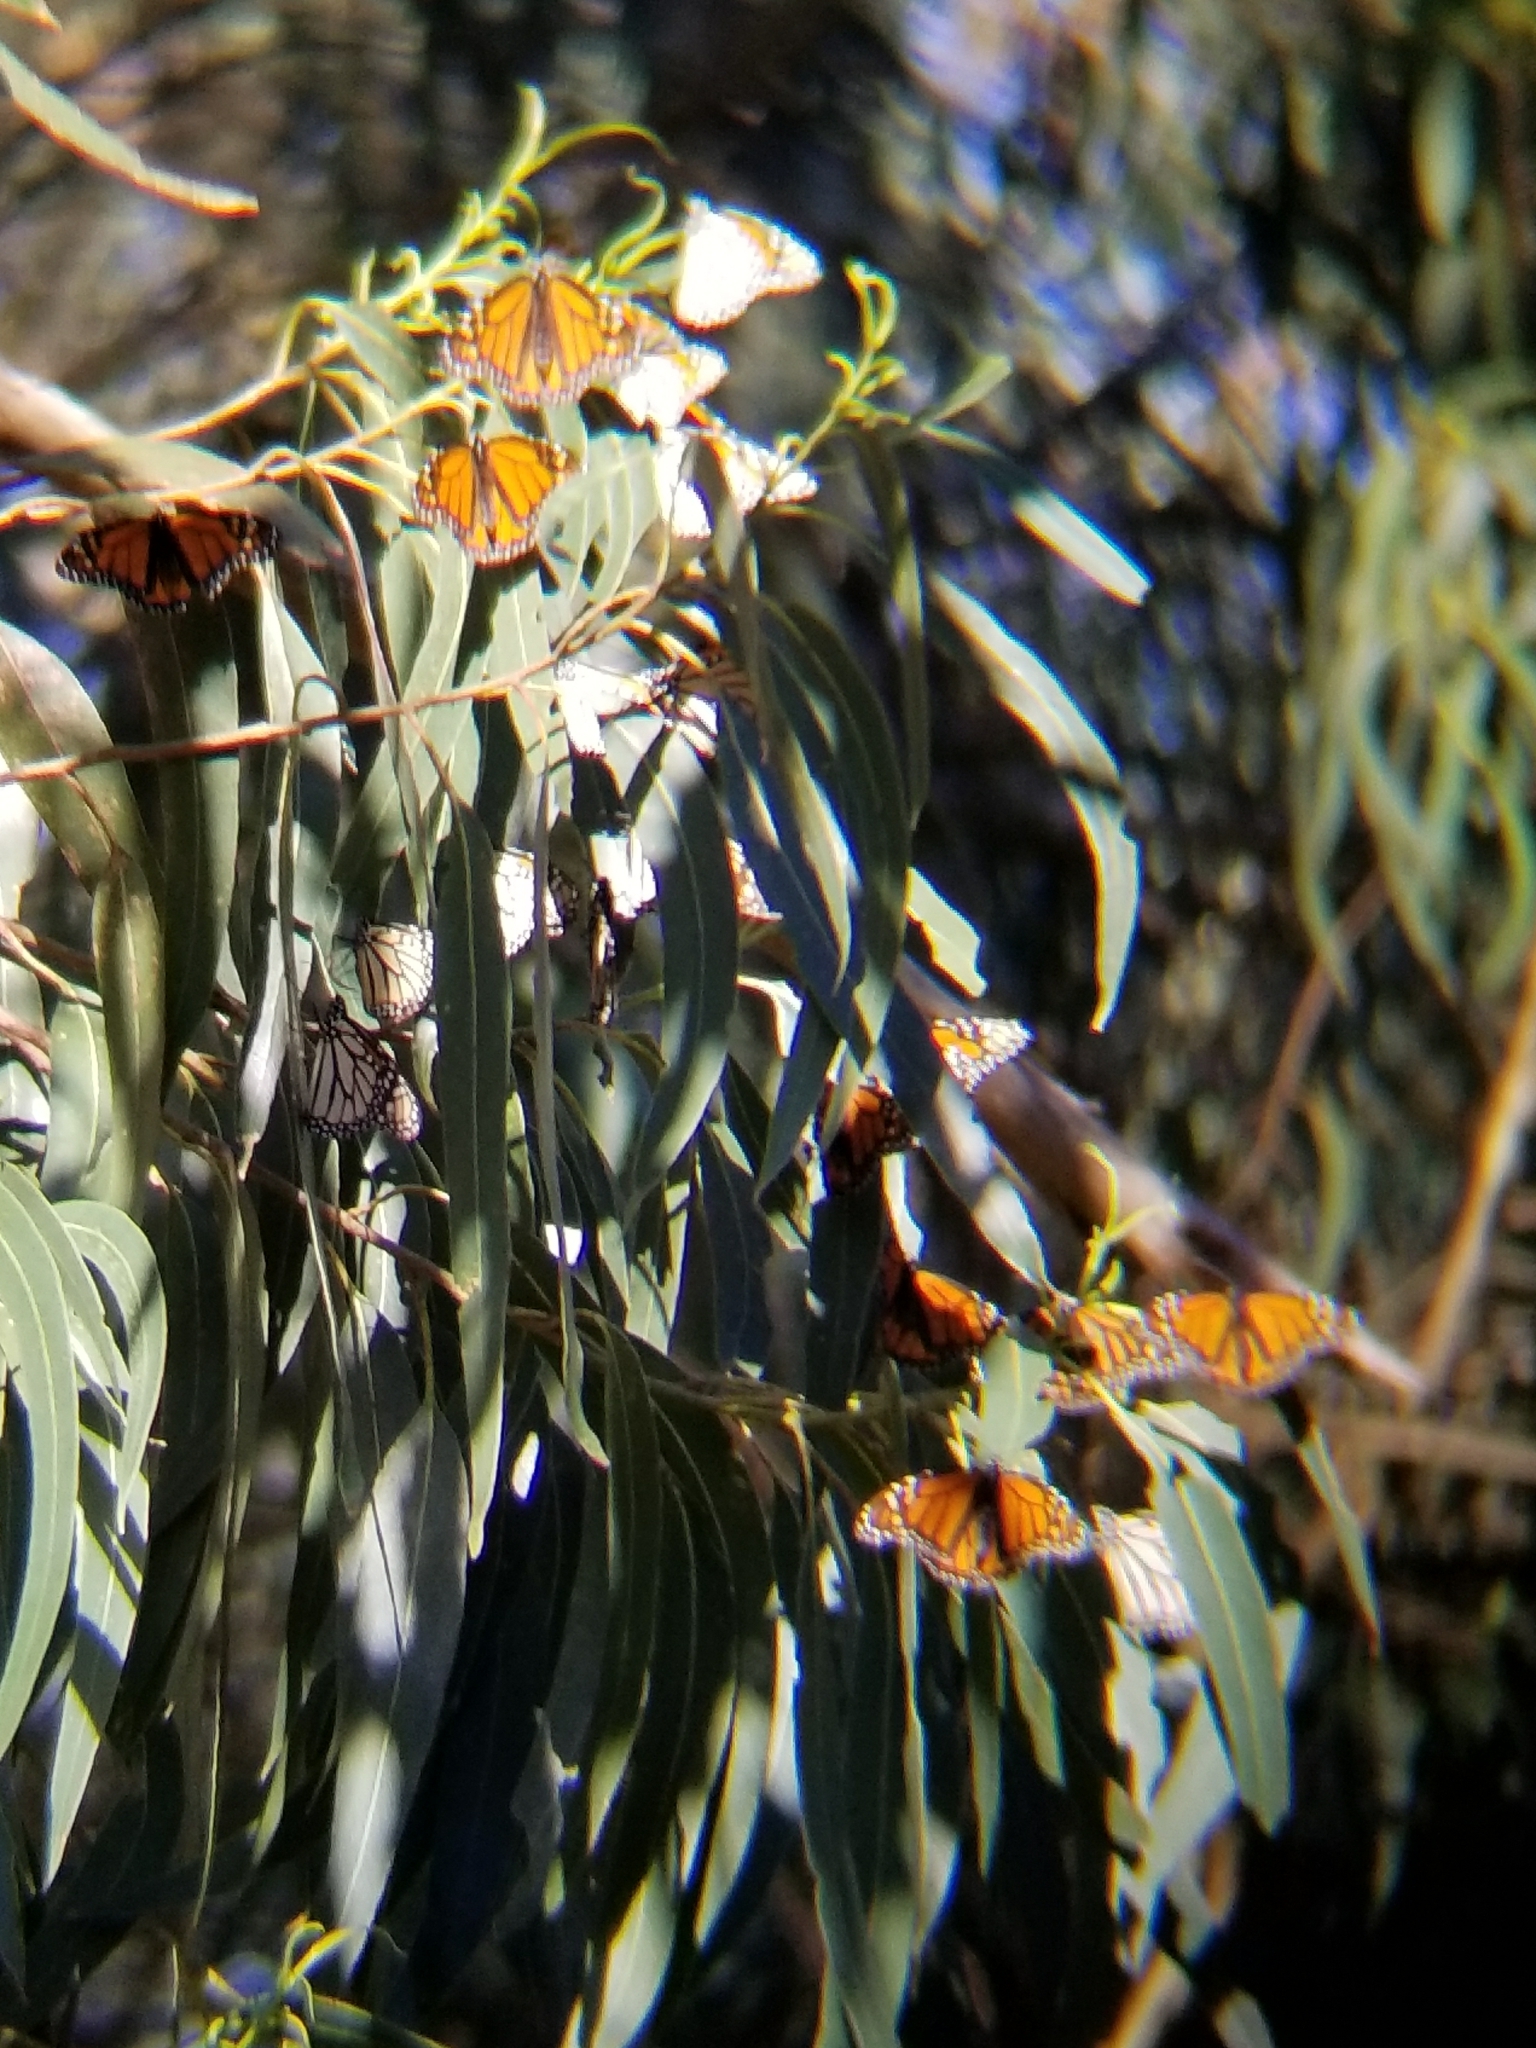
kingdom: Animalia
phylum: Arthropoda
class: Insecta
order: Lepidoptera
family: Nymphalidae
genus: Danaus
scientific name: Danaus plexippus
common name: Monarch
